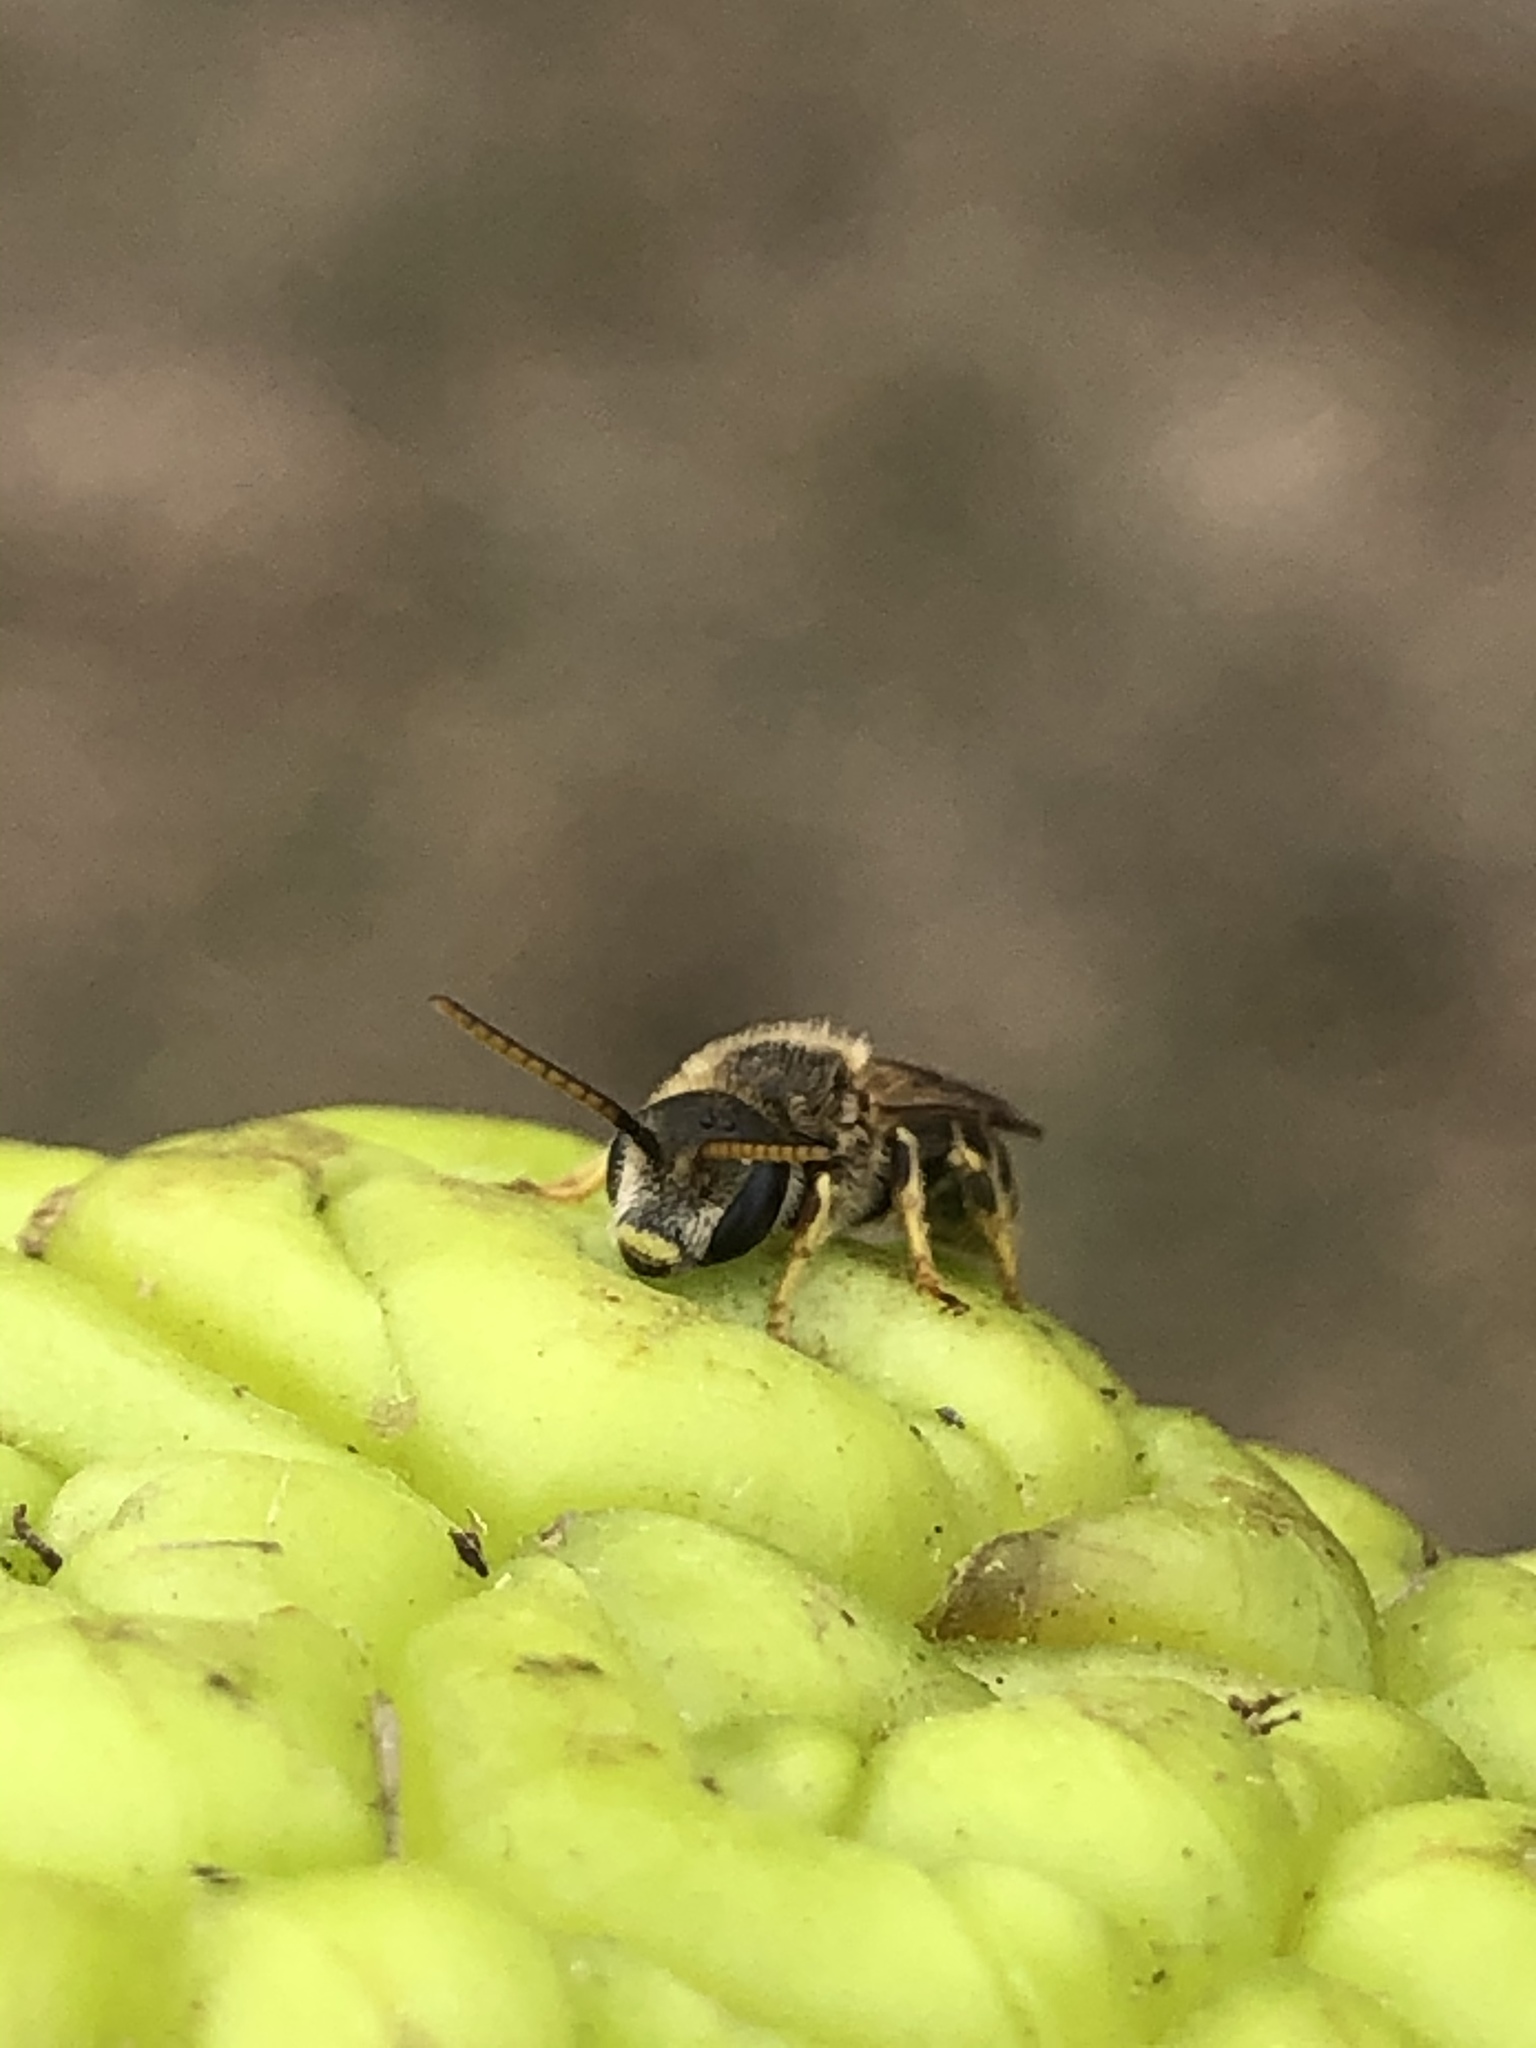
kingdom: Animalia
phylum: Arthropoda
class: Insecta
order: Hymenoptera
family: Halictidae
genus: Halictus
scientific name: Halictus ligatus
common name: Ligated furrow bee
